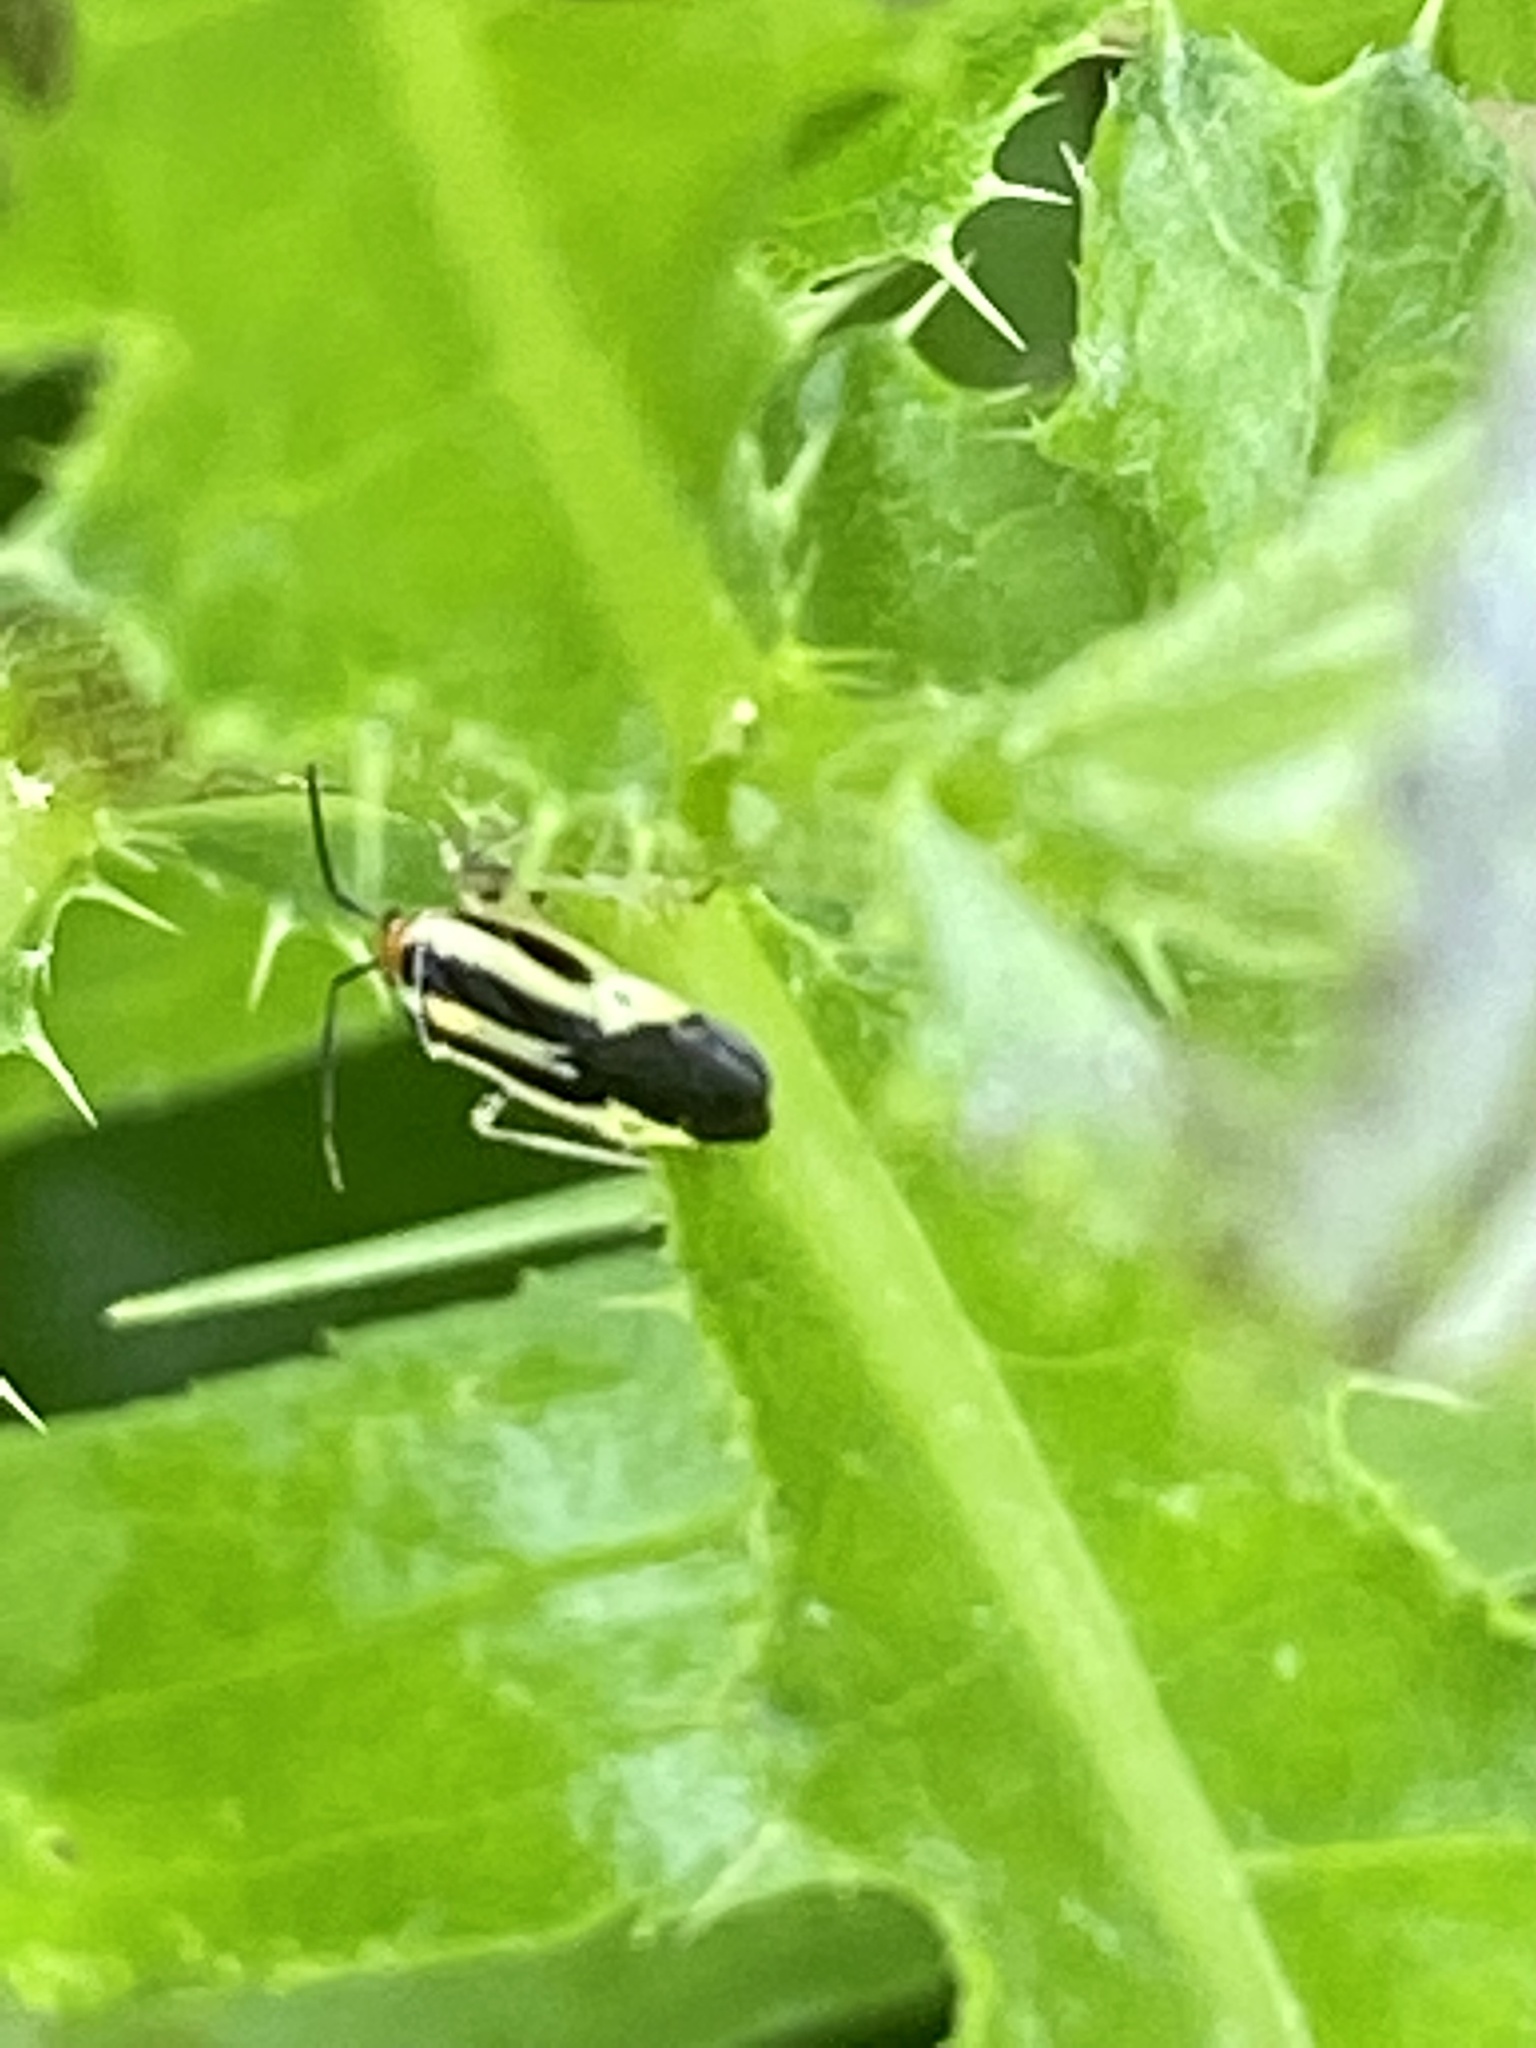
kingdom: Animalia
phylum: Arthropoda
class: Insecta
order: Hemiptera
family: Miridae
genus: Poecilocapsus
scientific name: Poecilocapsus lineatus
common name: Four-lined plant bug
